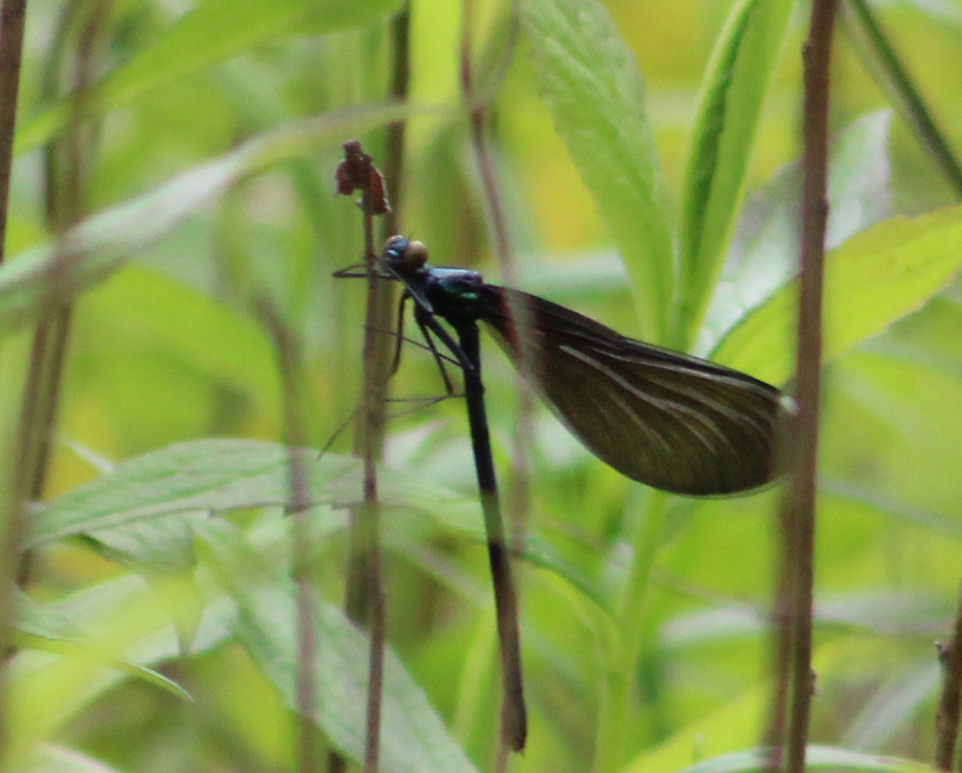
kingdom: Animalia
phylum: Arthropoda
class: Insecta
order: Odonata
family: Calopterygidae
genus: Calopteryx
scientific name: Calopteryx maculata
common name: Ebony jewelwing
